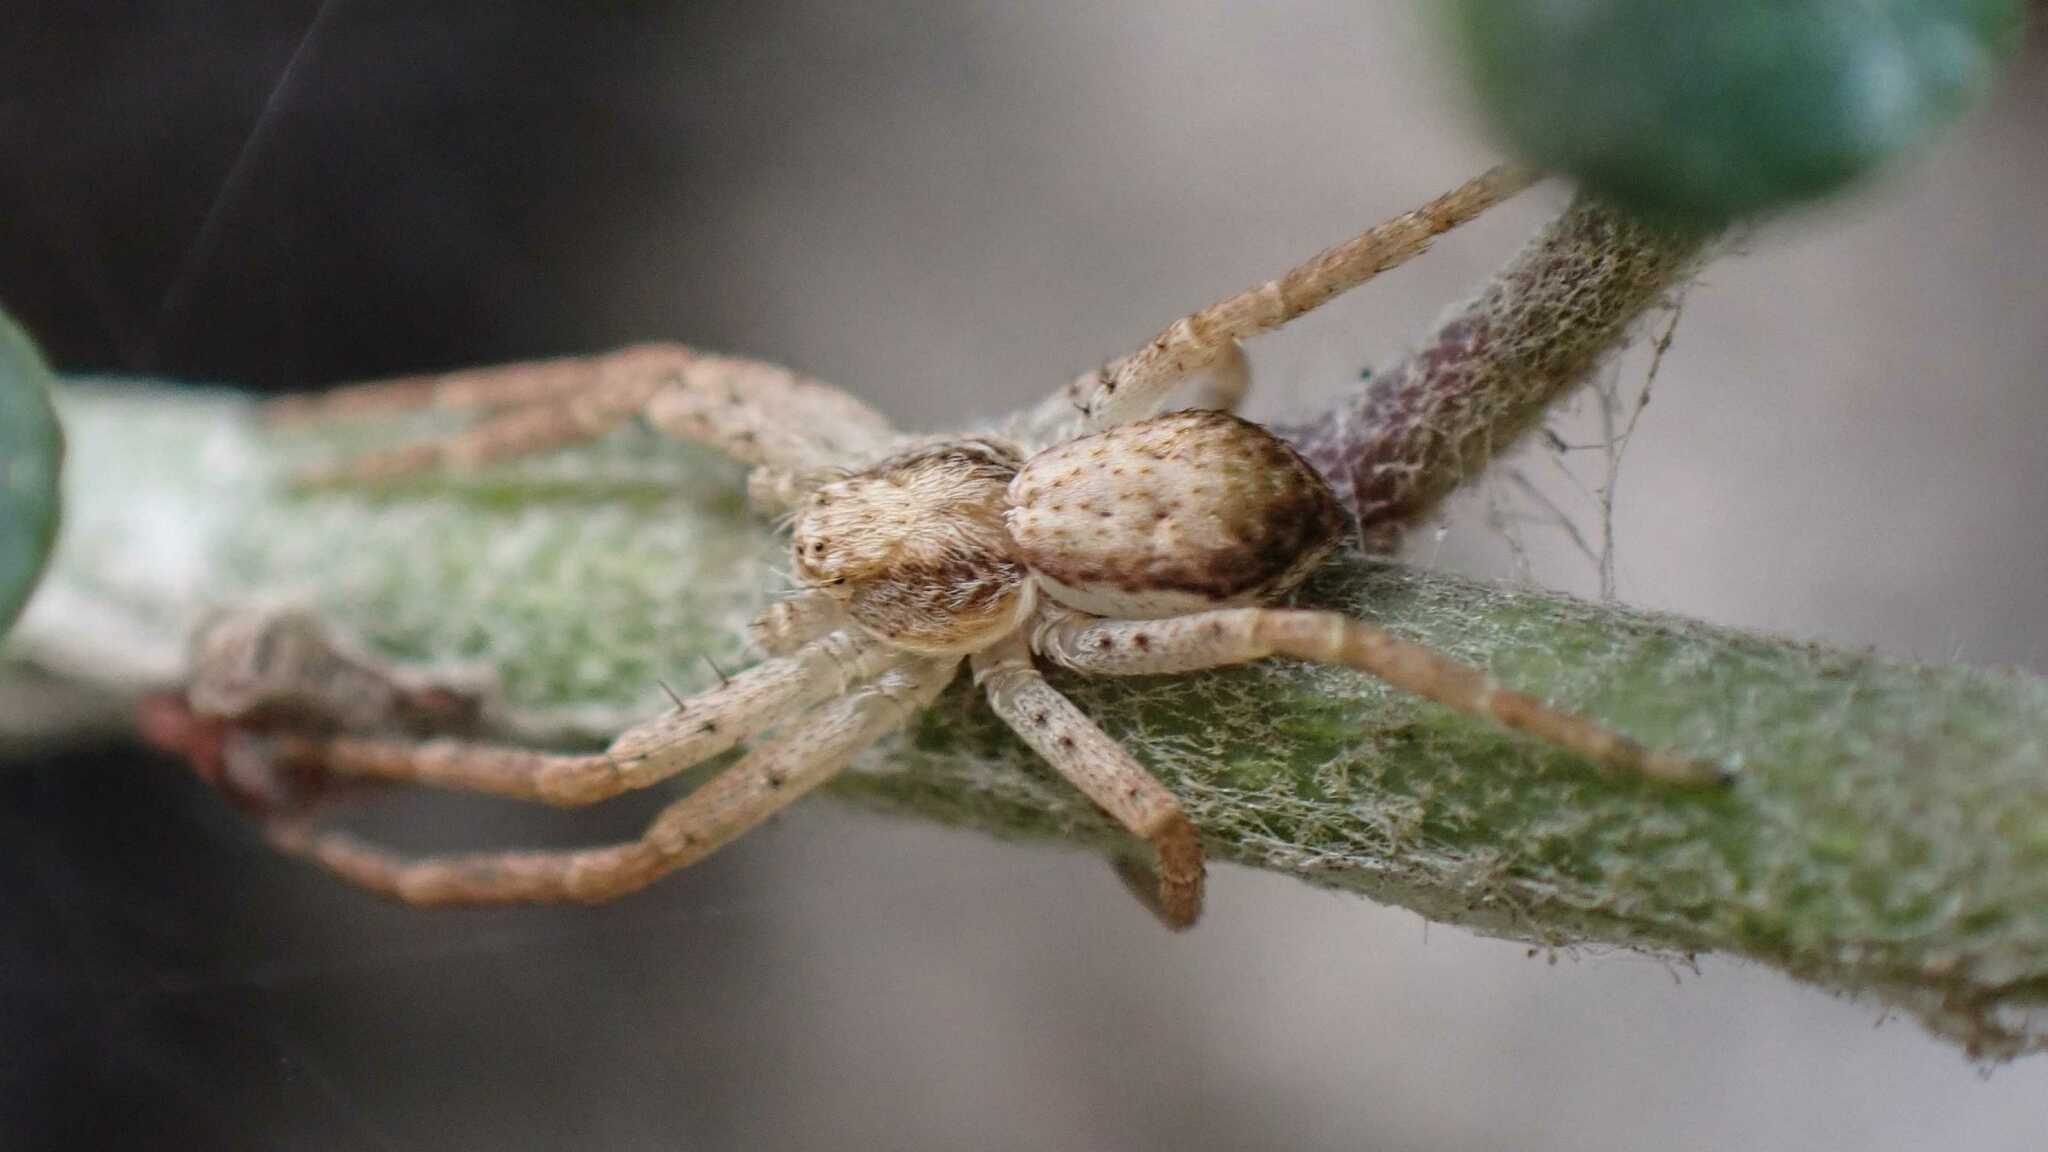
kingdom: Animalia
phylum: Arthropoda
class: Arachnida
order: Araneae
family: Philodromidae
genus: Philodromus
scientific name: Philodromus dispar
